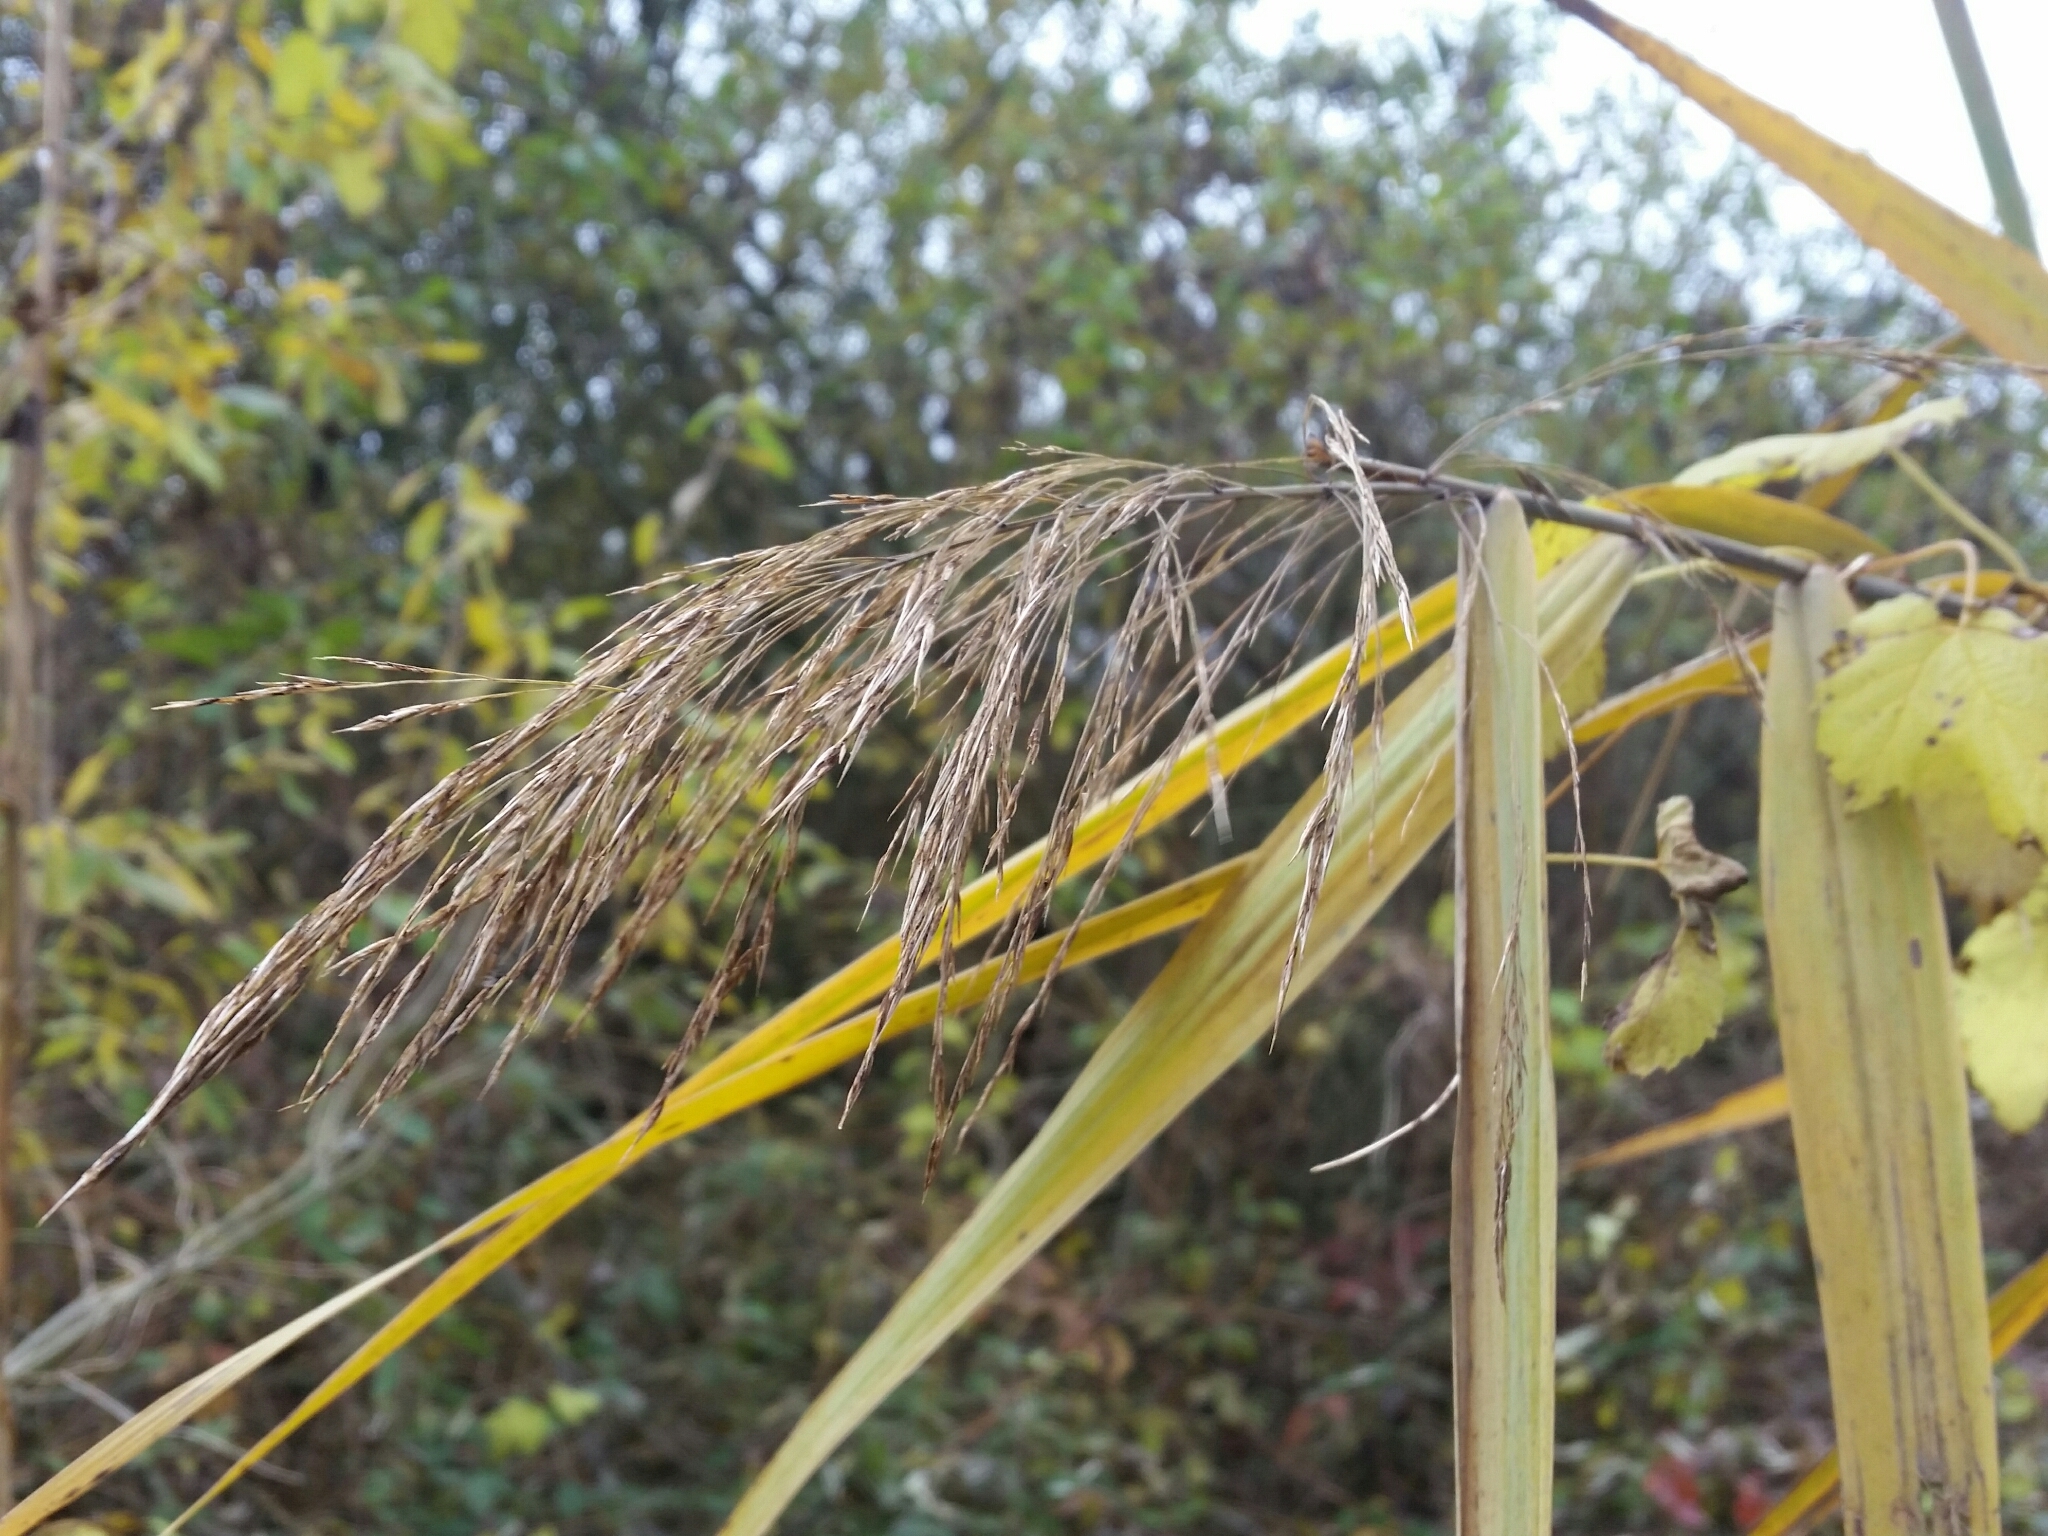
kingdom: Plantae
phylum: Tracheophyta
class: Liliopsida
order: Poales
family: Poaceae
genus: Phragmites
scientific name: Phragmites australis
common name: Common reed
